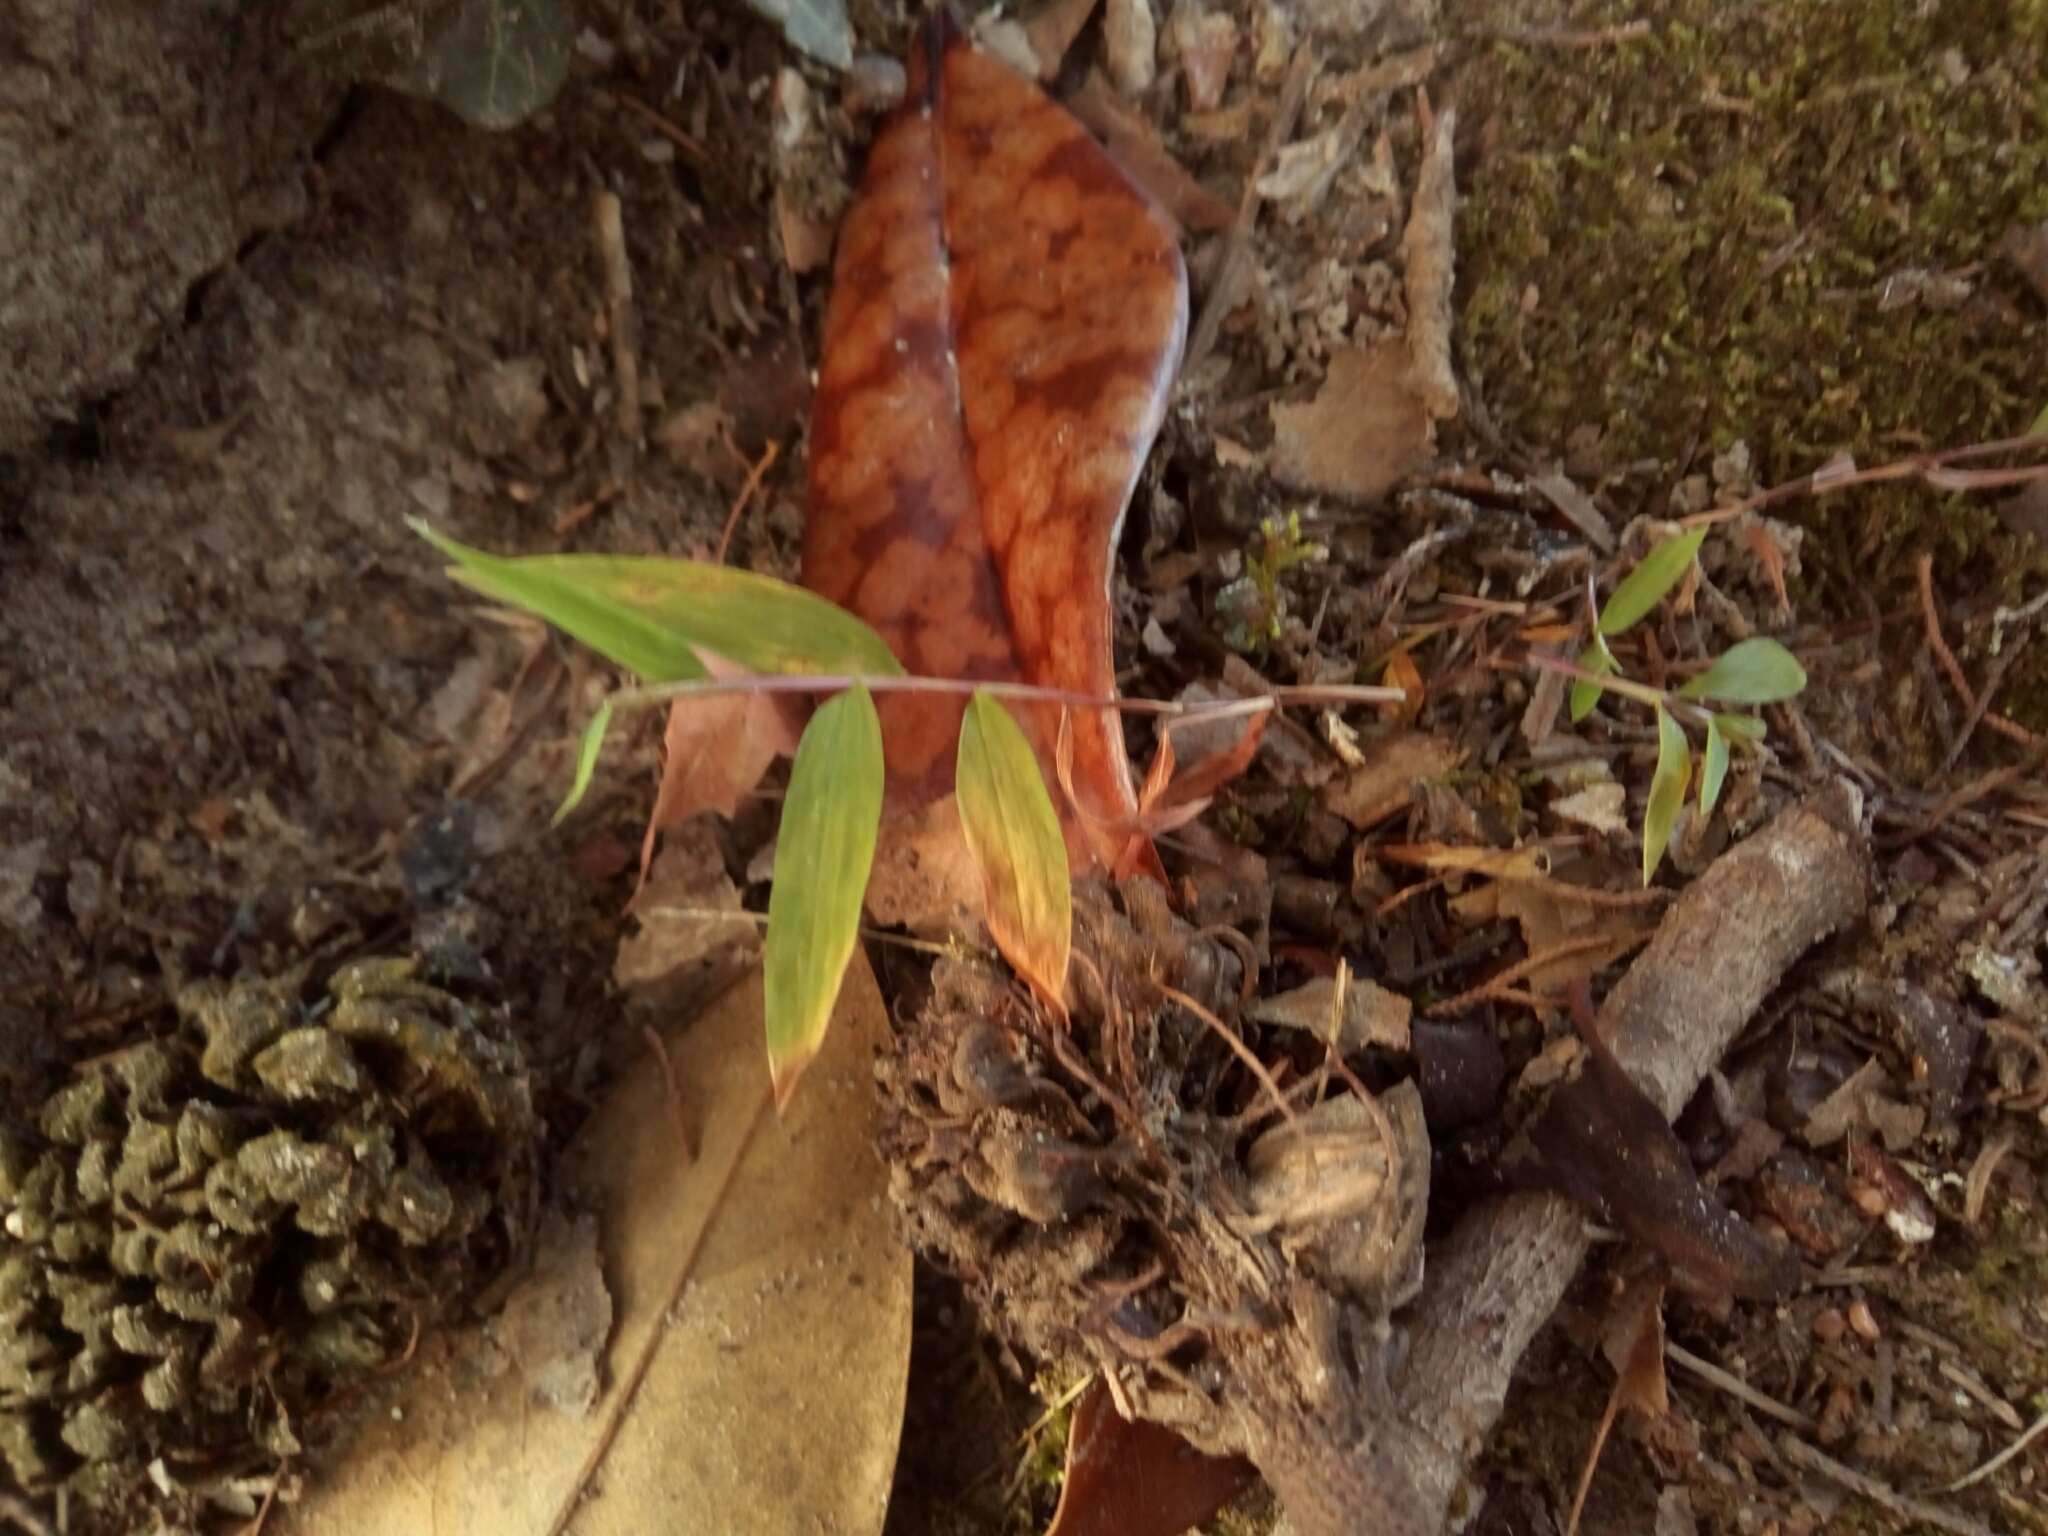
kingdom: Plantae
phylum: Tracheophyta
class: Liliopsida
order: Poales
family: Poaceae
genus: Microstegium
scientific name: Microstegium vimineum
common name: Japanese stiltgrass
